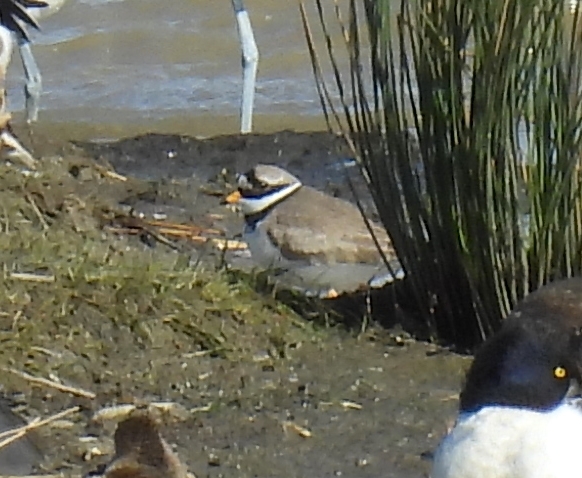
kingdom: Animalia
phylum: Chordata
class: Aves
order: Charadriiformes
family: Charadriidae
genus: Charadrius
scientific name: Charadrius hiaticula
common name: Common ringed plover
